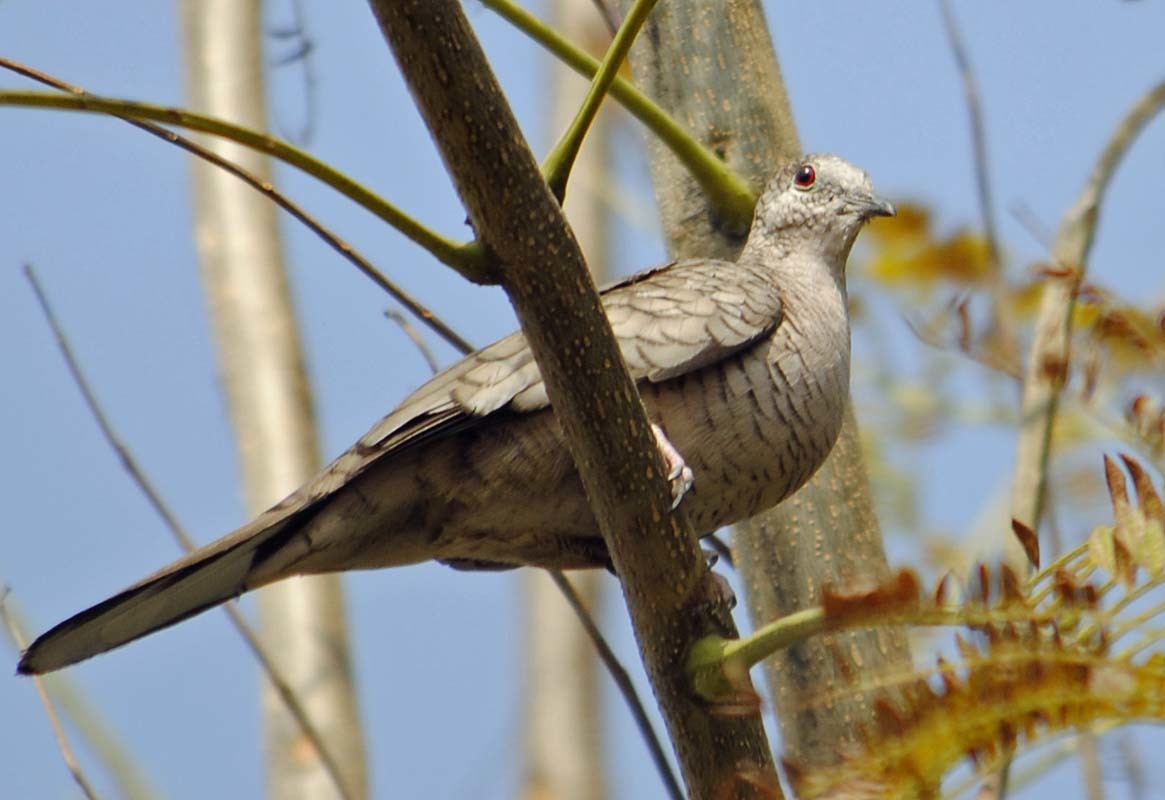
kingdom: Animalia
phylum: Chordata
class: Aves
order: Columbiformes
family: Columbidae
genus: Columbina
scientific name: Columbina inca
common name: Inca dove
